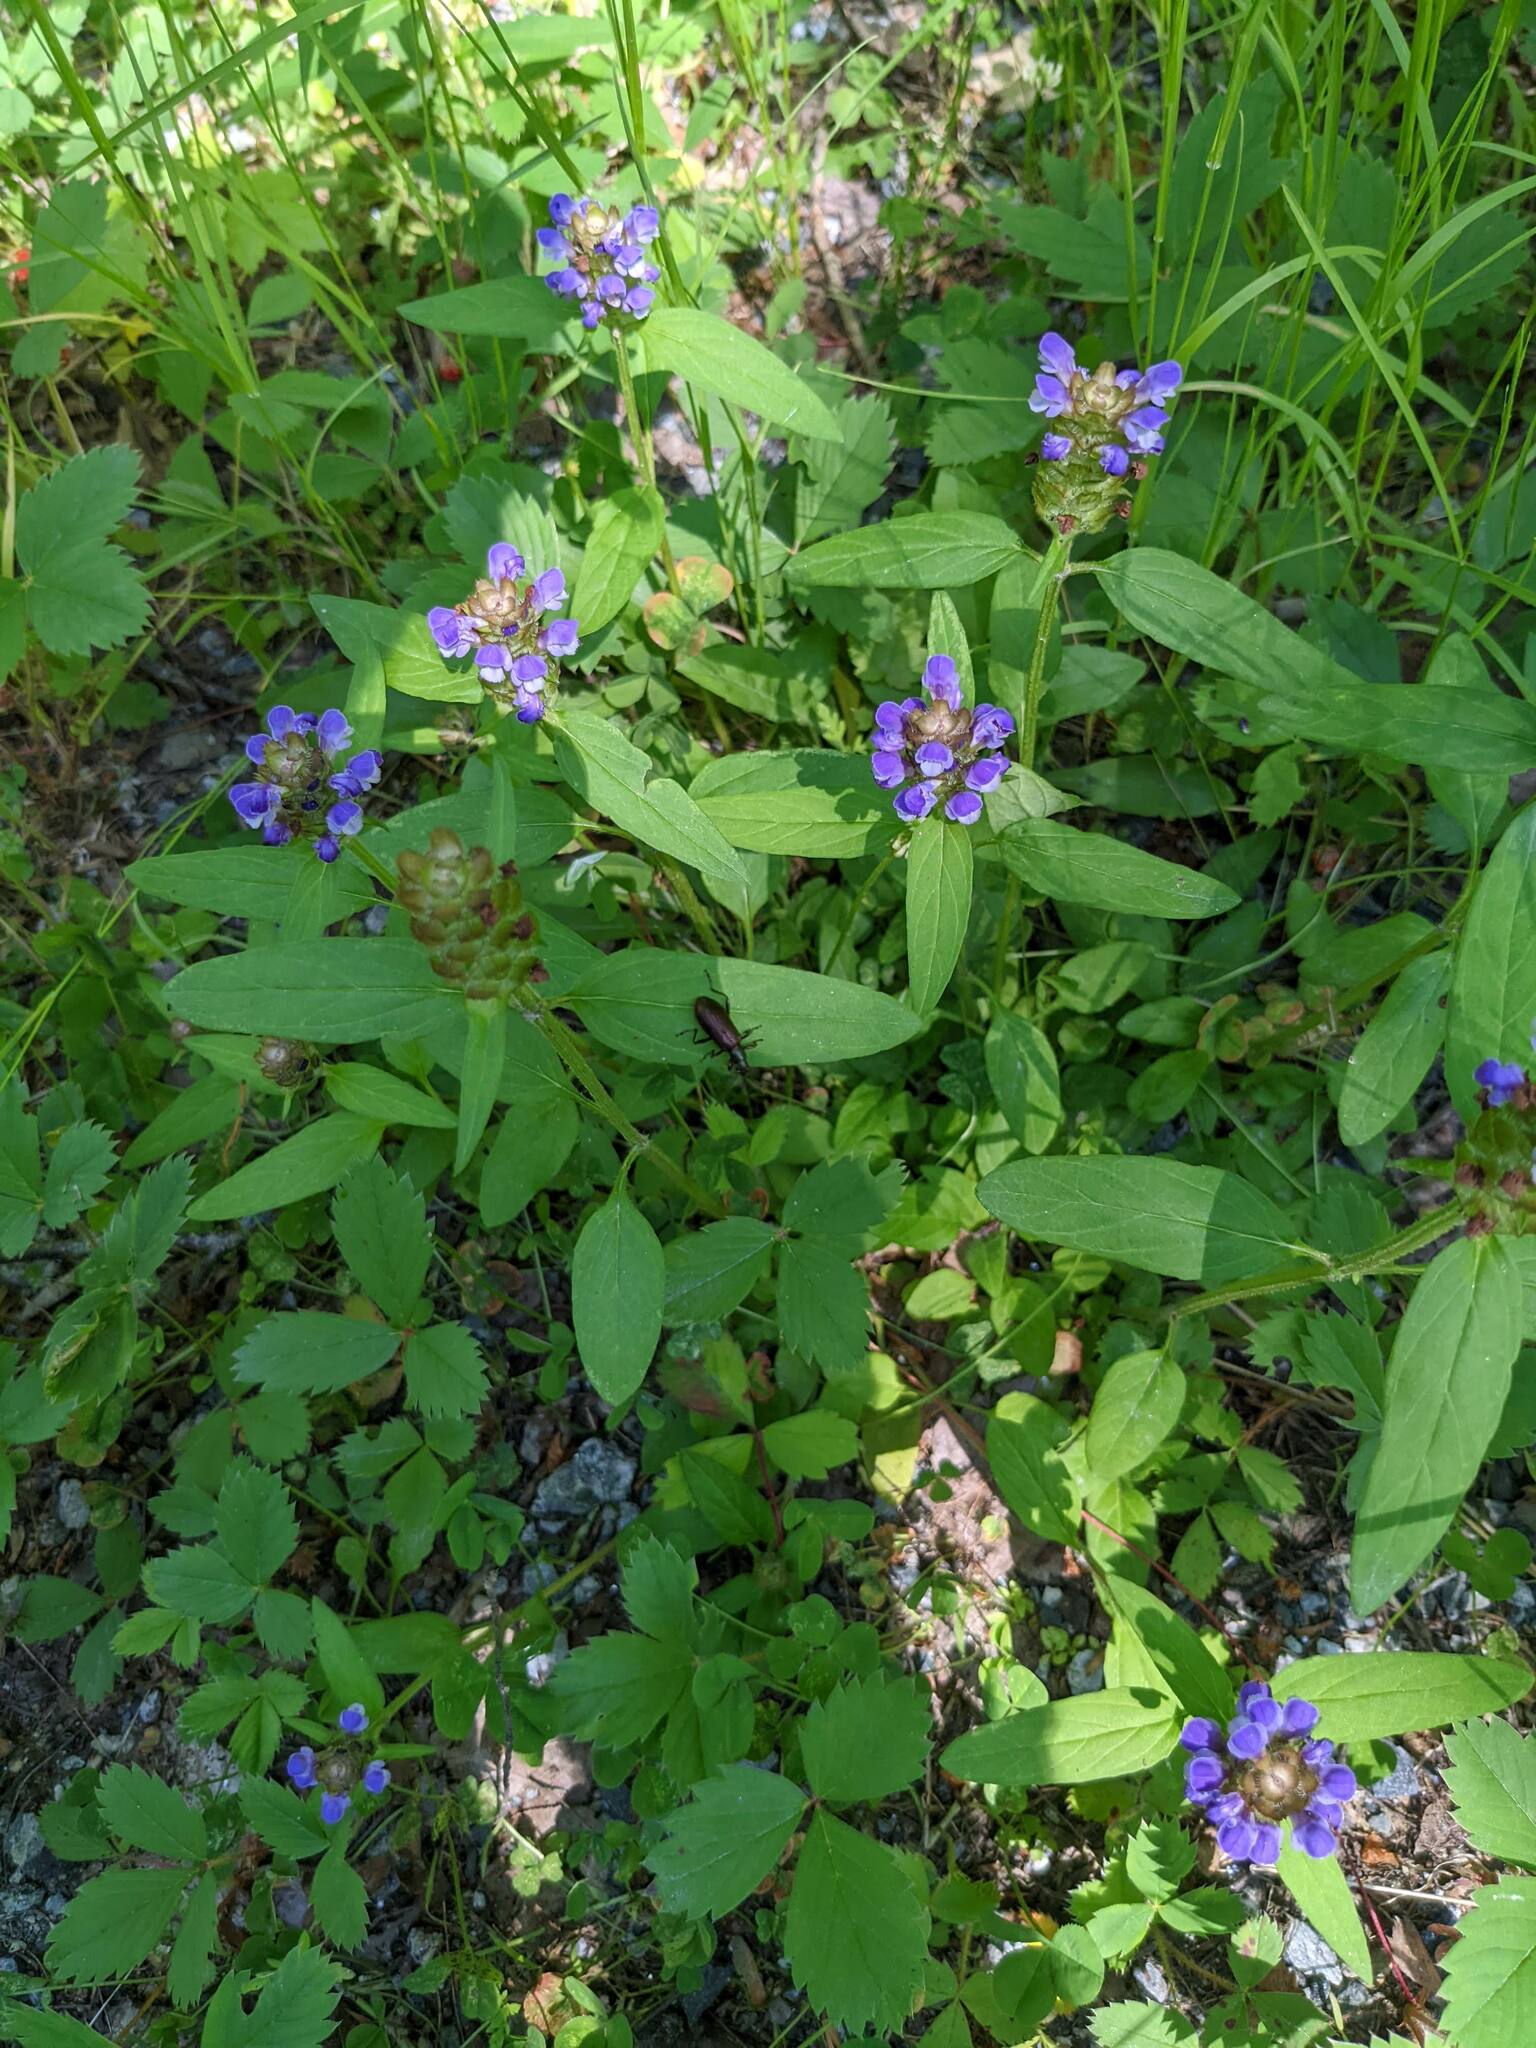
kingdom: Plantae
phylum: Tracheophyta
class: Magnoliopsida
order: Lamiales
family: Lamiaceae
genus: Prunella
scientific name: Prunella vulgaris
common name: Heal-all
